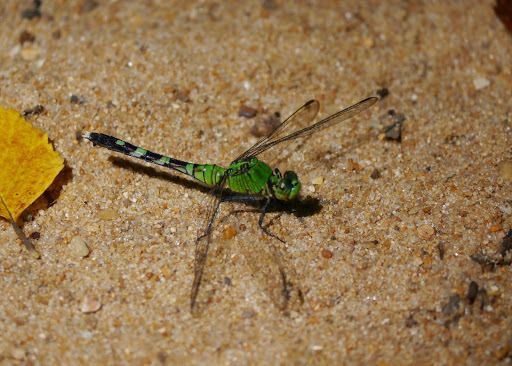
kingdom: Animalia
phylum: Arthropoda
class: Insecta
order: Odonata
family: Libellulidae
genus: Erythemis
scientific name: Erythemis simplicicollis
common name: Eastern pondhawk
